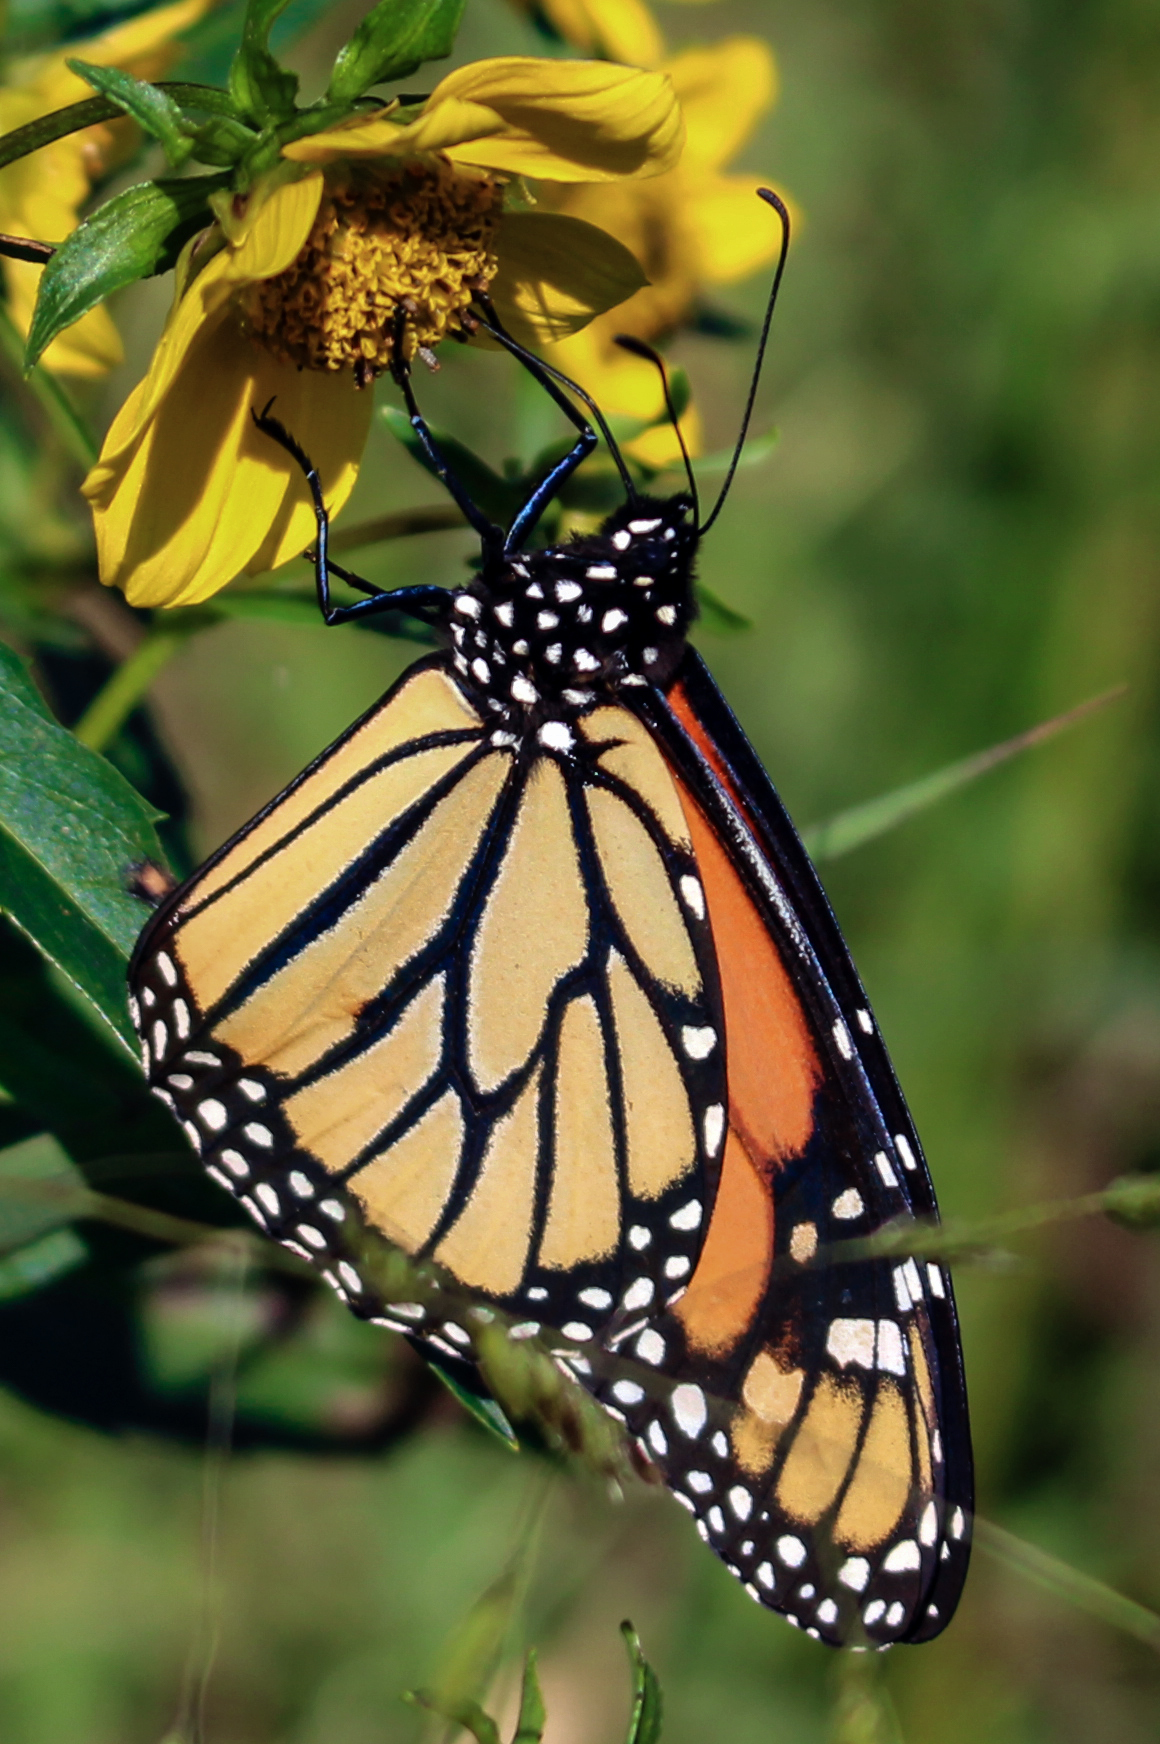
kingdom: Animalia
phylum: Arthropoda
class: Insecta
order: Lepidoptera
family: Nymphalidae
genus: Danaus
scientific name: Danaus plexippus
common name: Monarch
